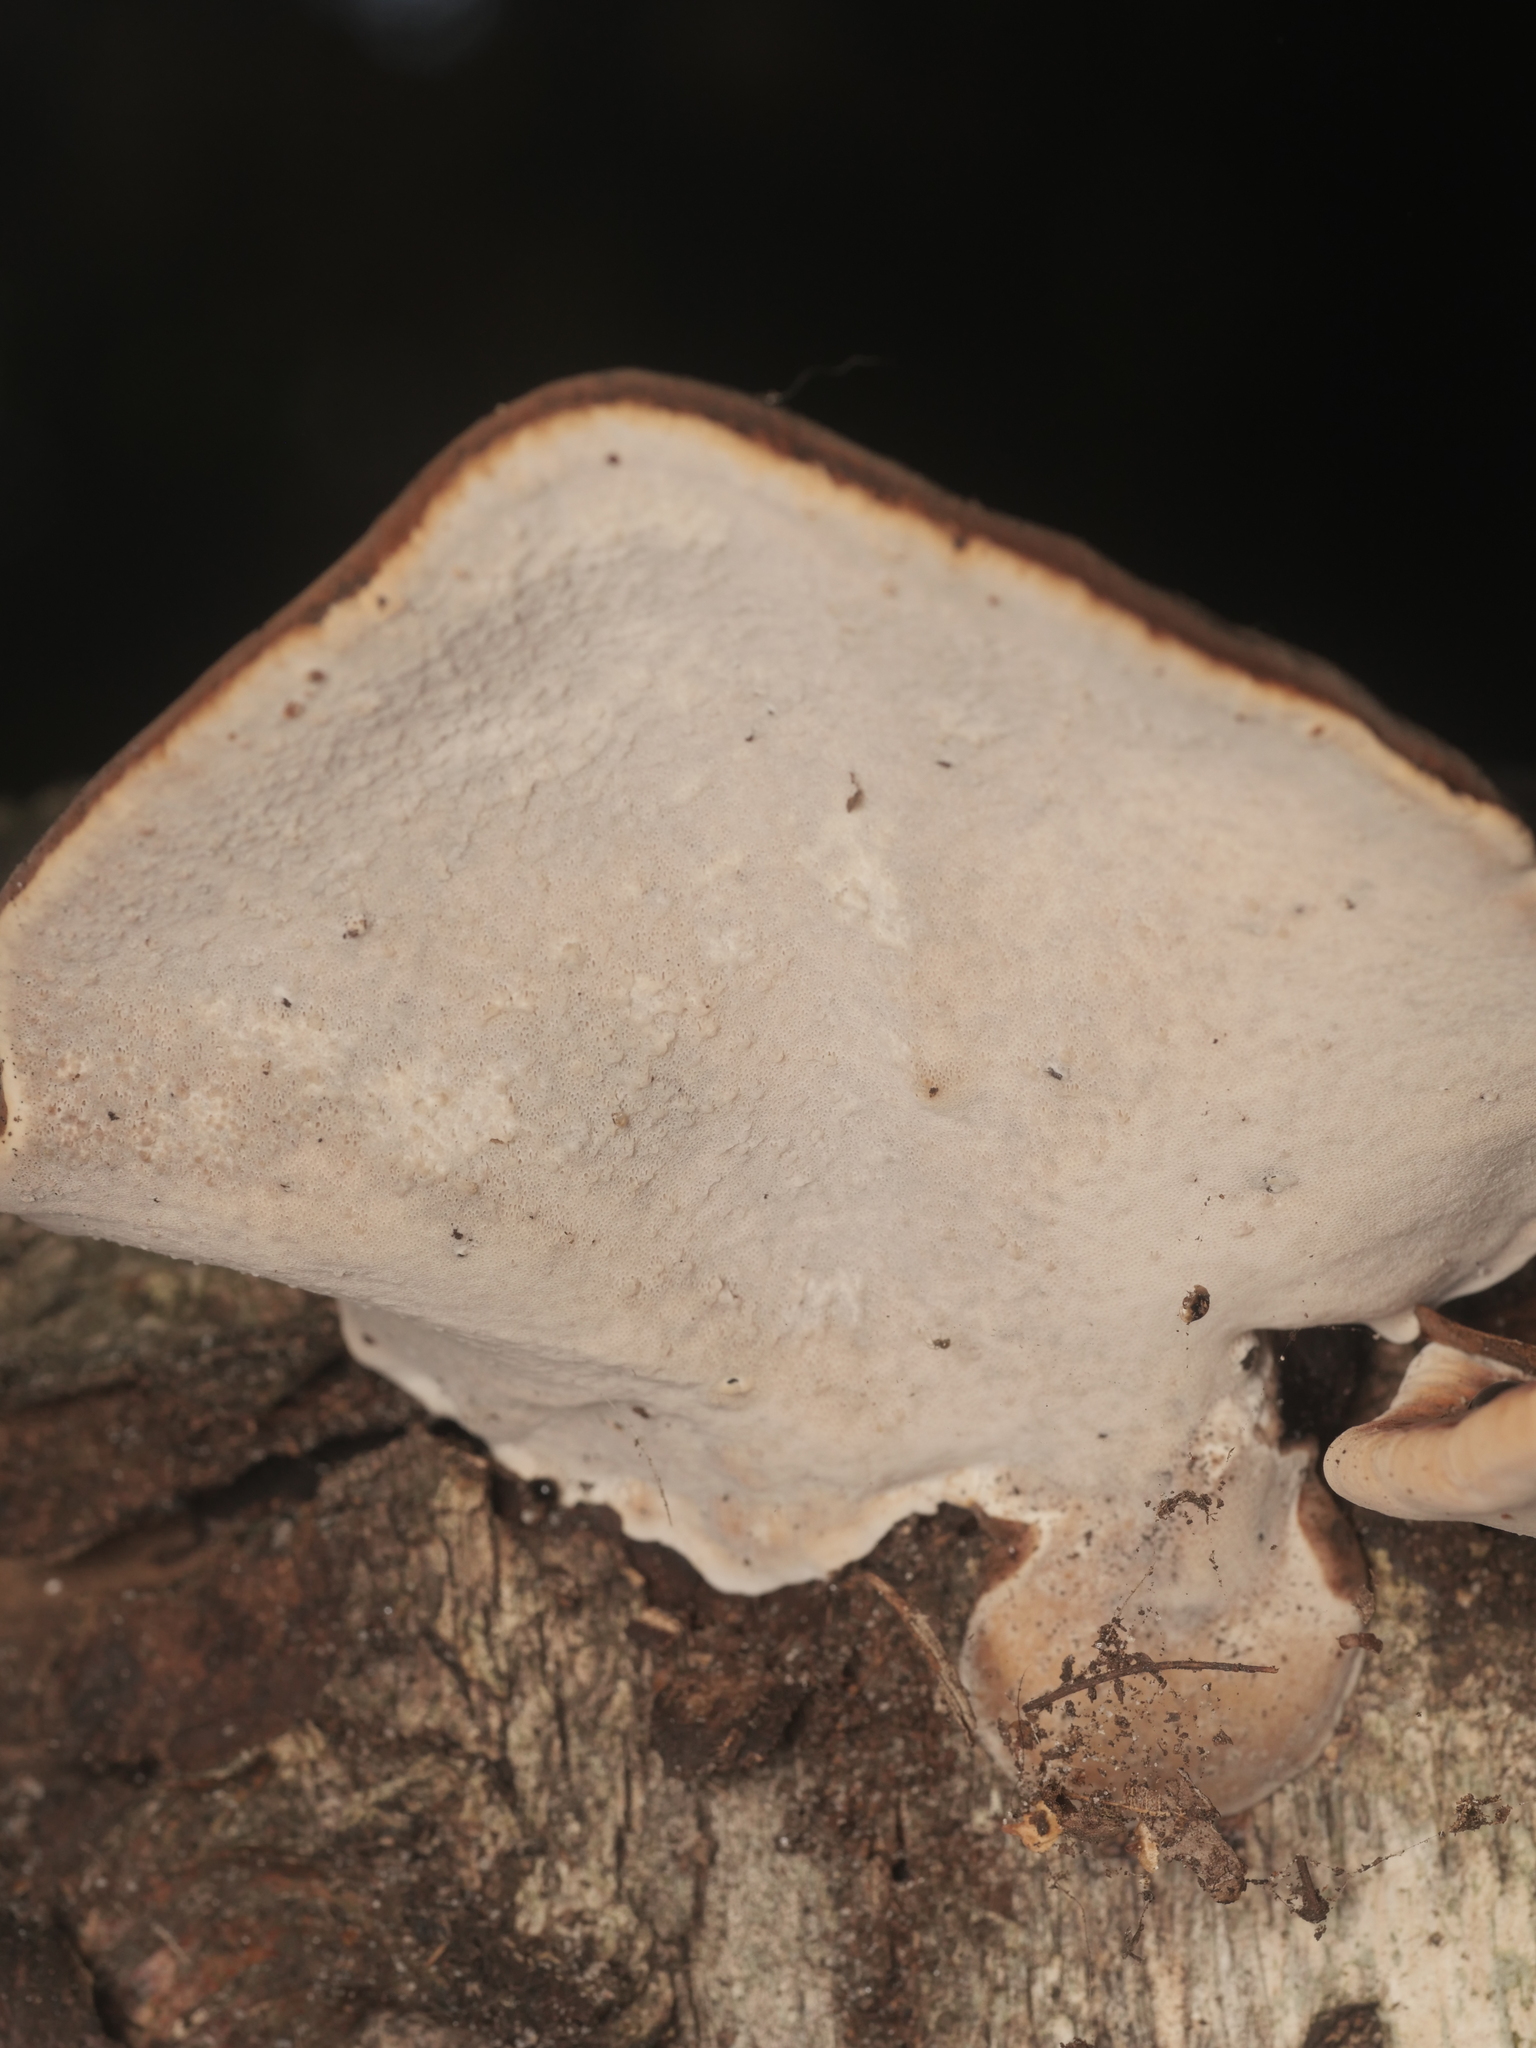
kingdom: Fungi
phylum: Basidiomycota
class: Agaricomycetes
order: Polyporales
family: Ischnodermataceae
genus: Ischnoderma
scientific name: Ischnoderma benzoinum
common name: Benzoin bracket
